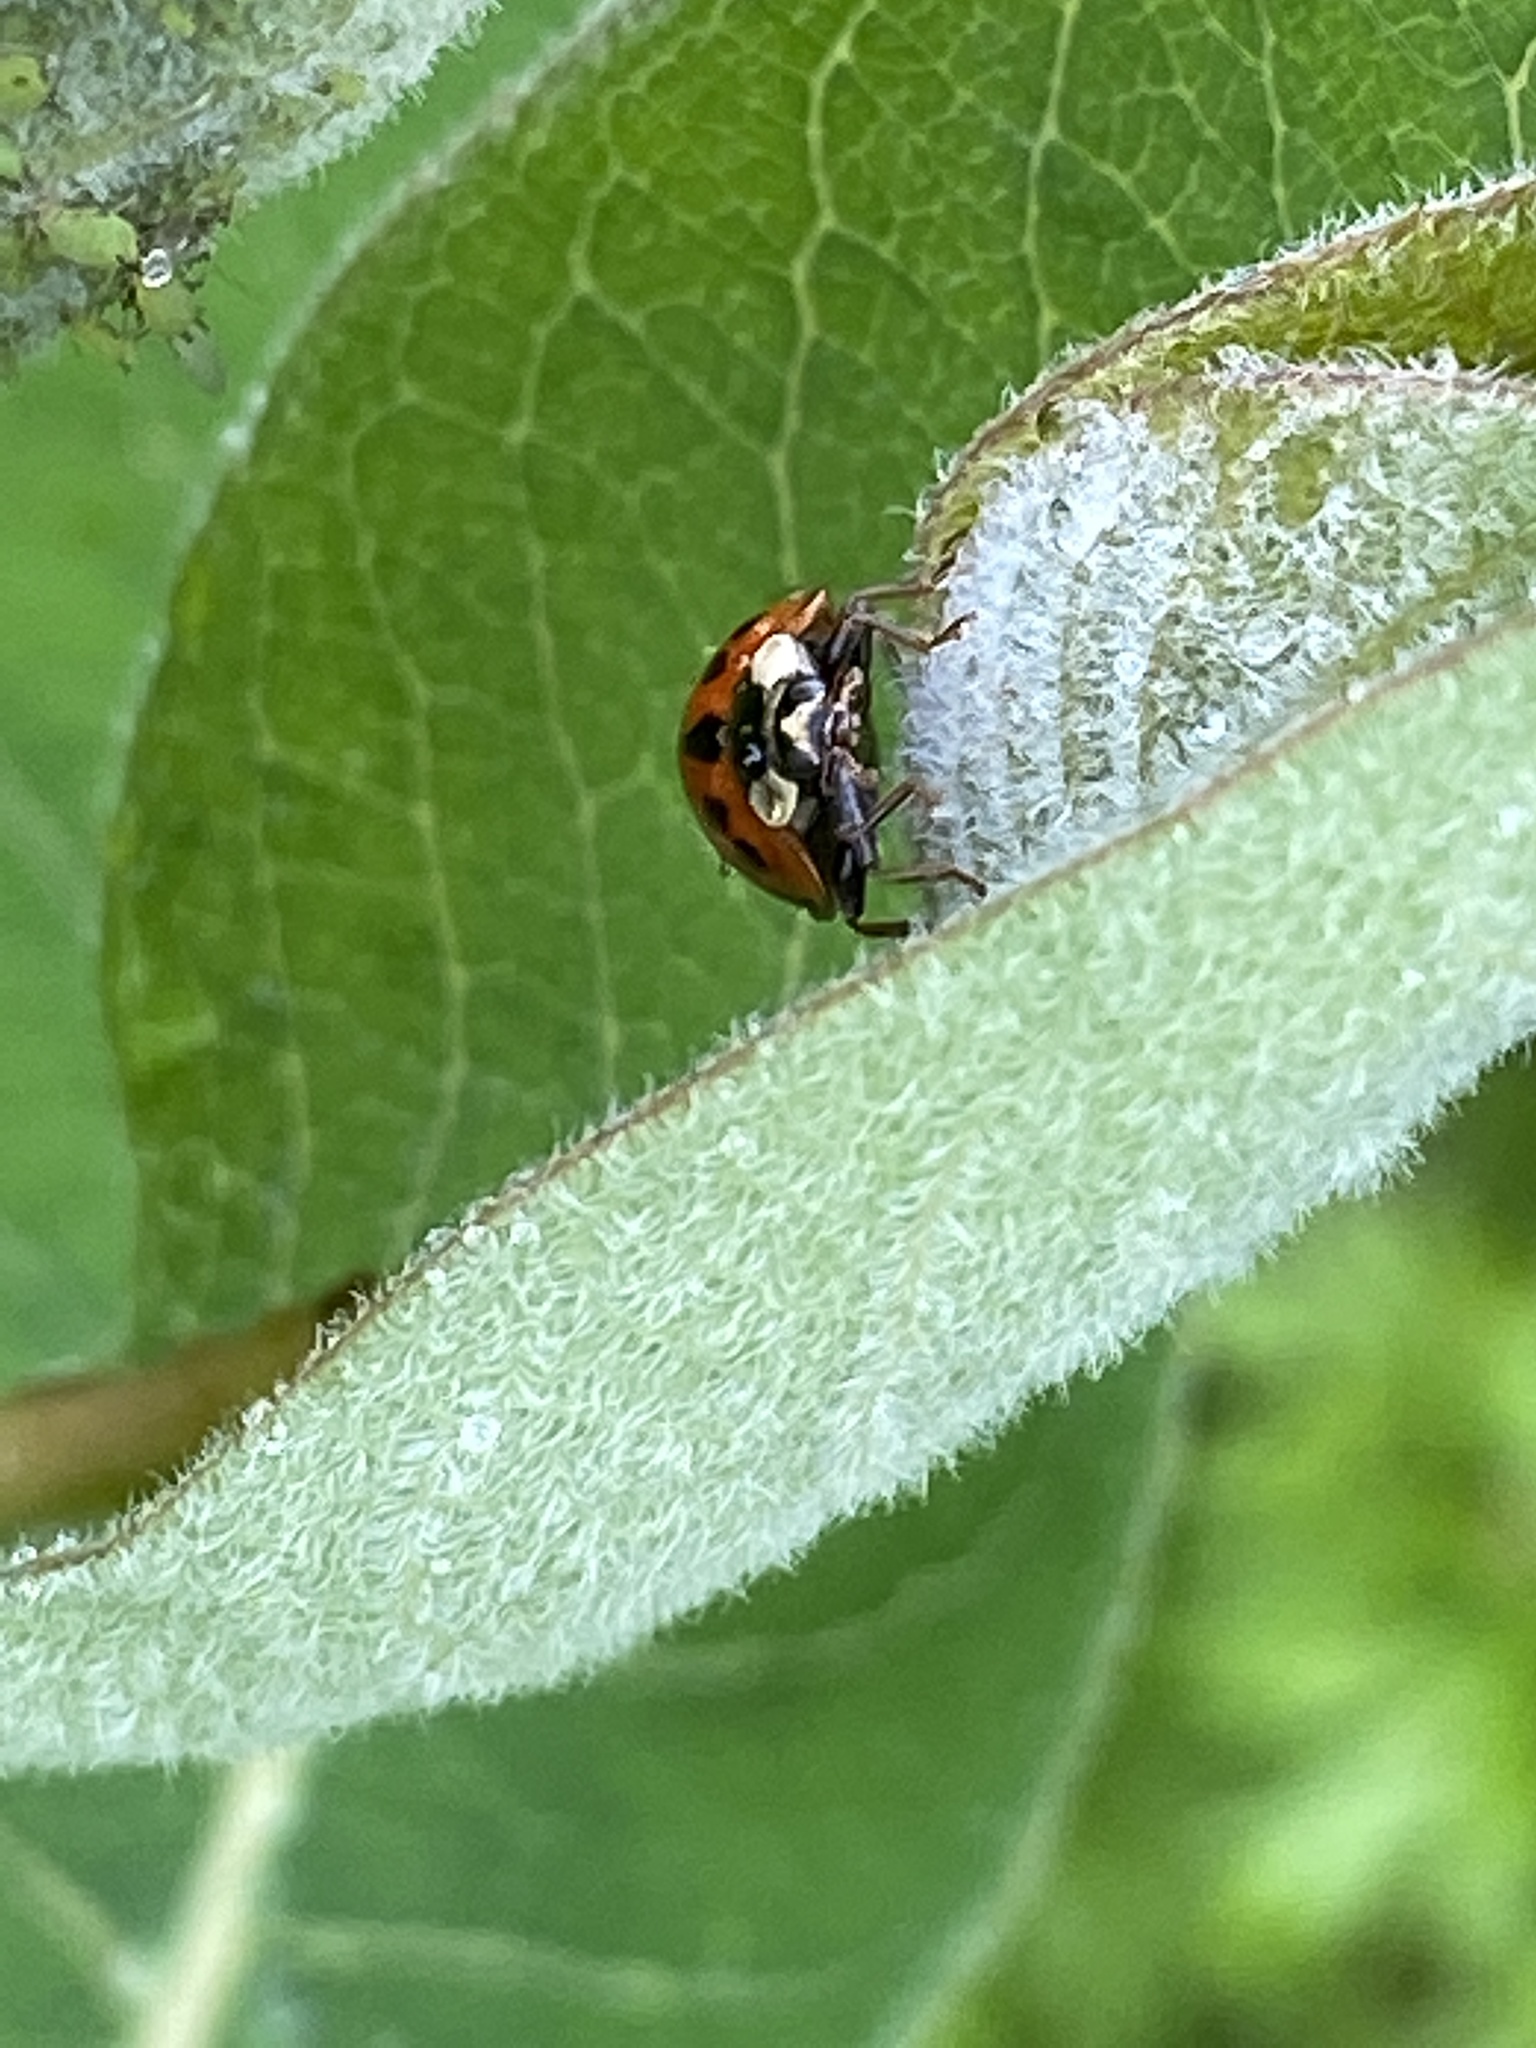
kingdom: Animalia
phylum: Arthropoda
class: Insecta
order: Coleoptera
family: Coccinellidae
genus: Harmonia
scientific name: Harmonia axyridis
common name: Harlequin ladybird
